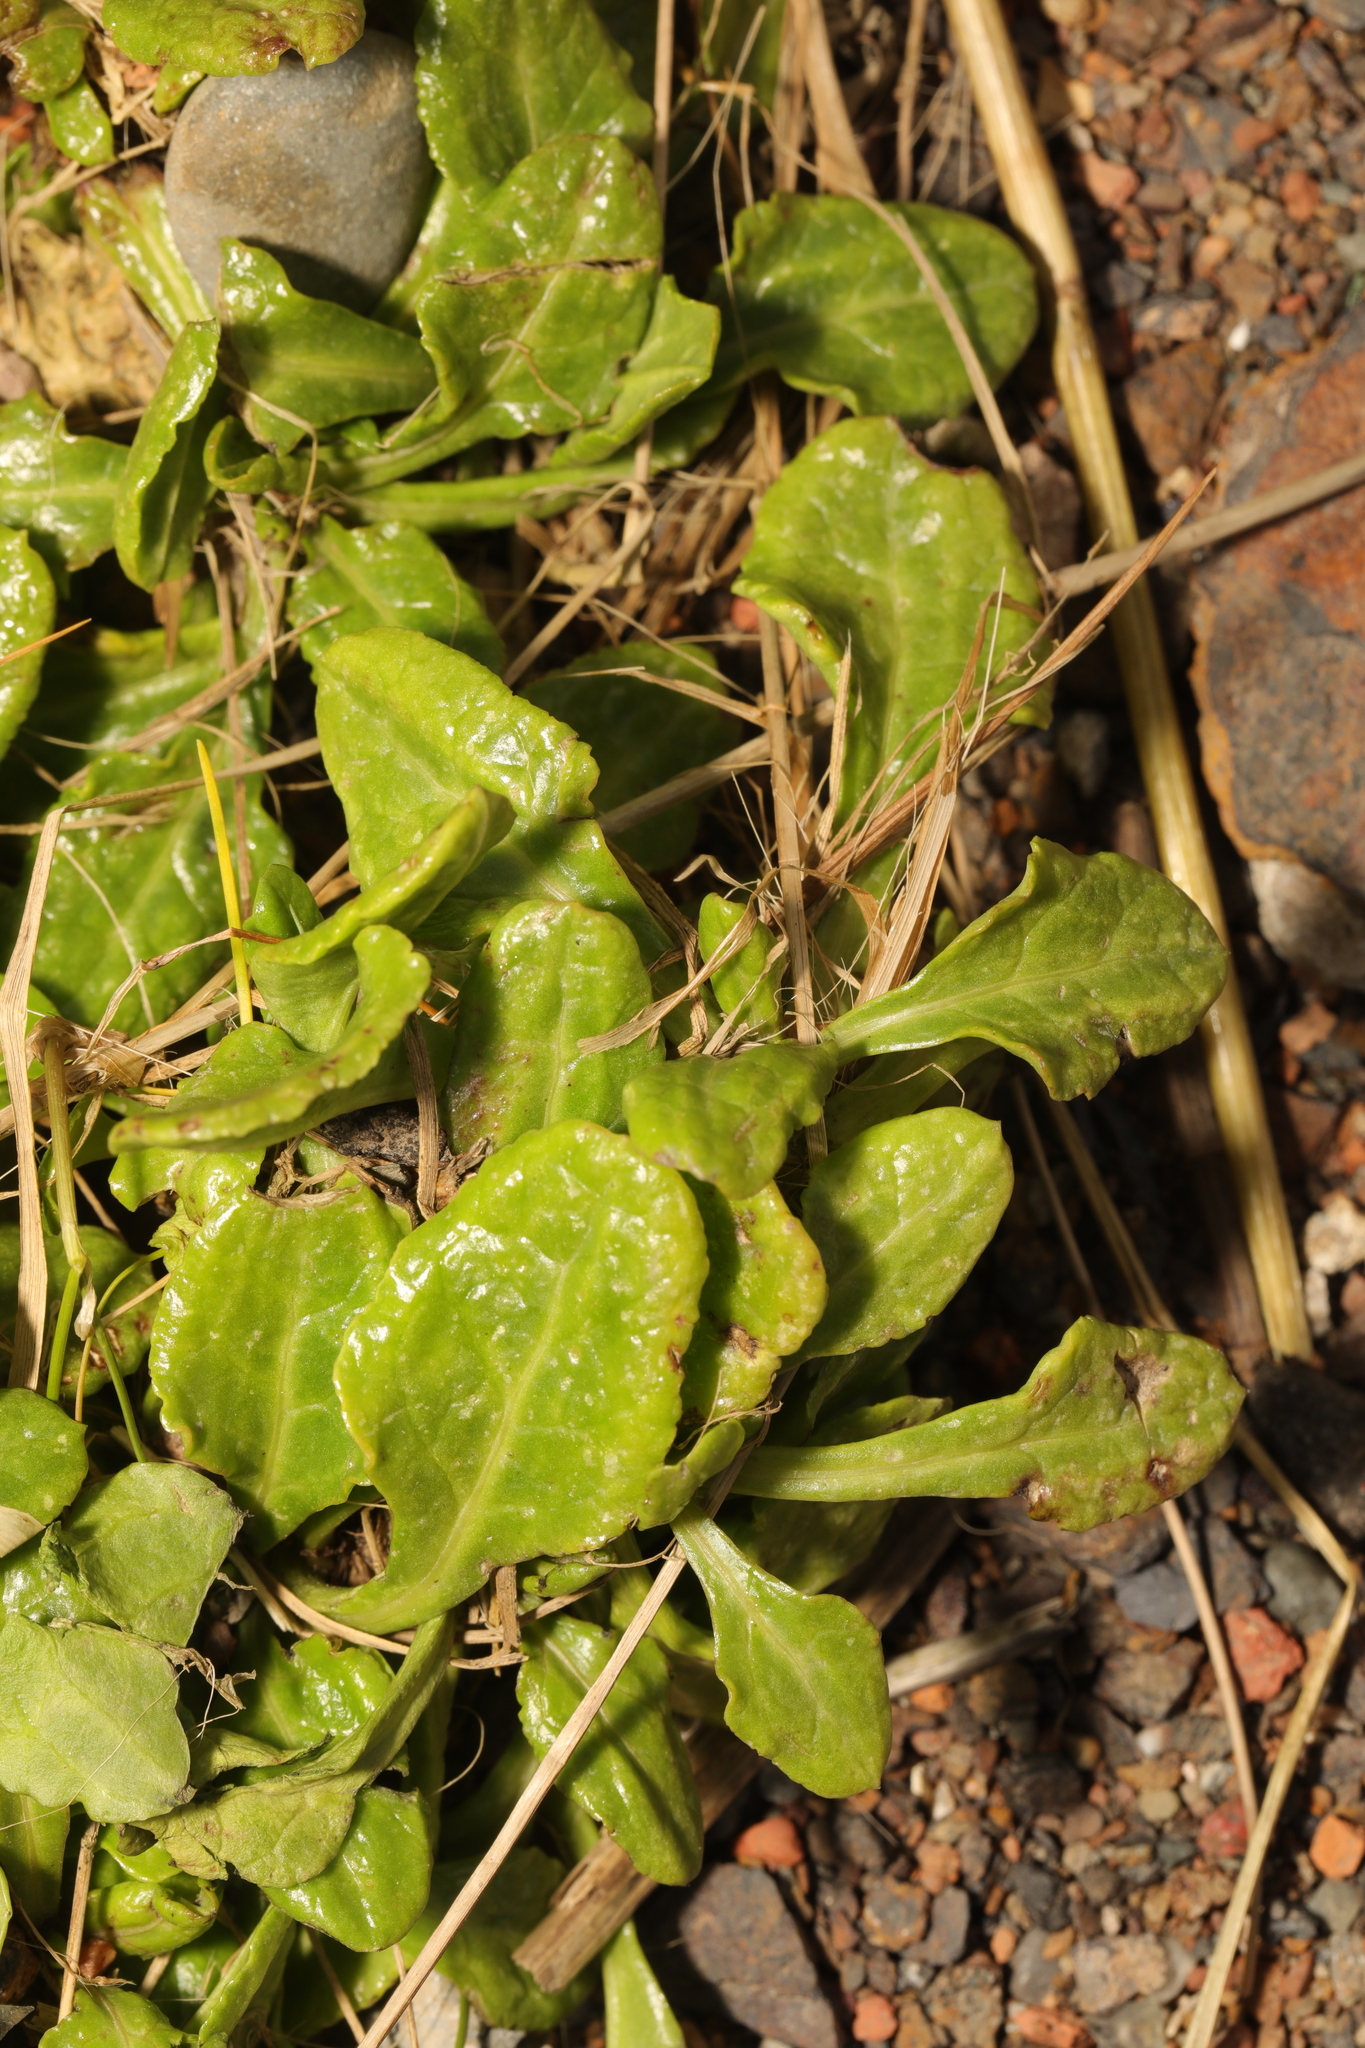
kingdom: Plantae
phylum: Tracheophyta
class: Magnoliopsida
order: Caryophyllales
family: Amaranthaceae
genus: Beta
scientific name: Beta vulgaris
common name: Beet
